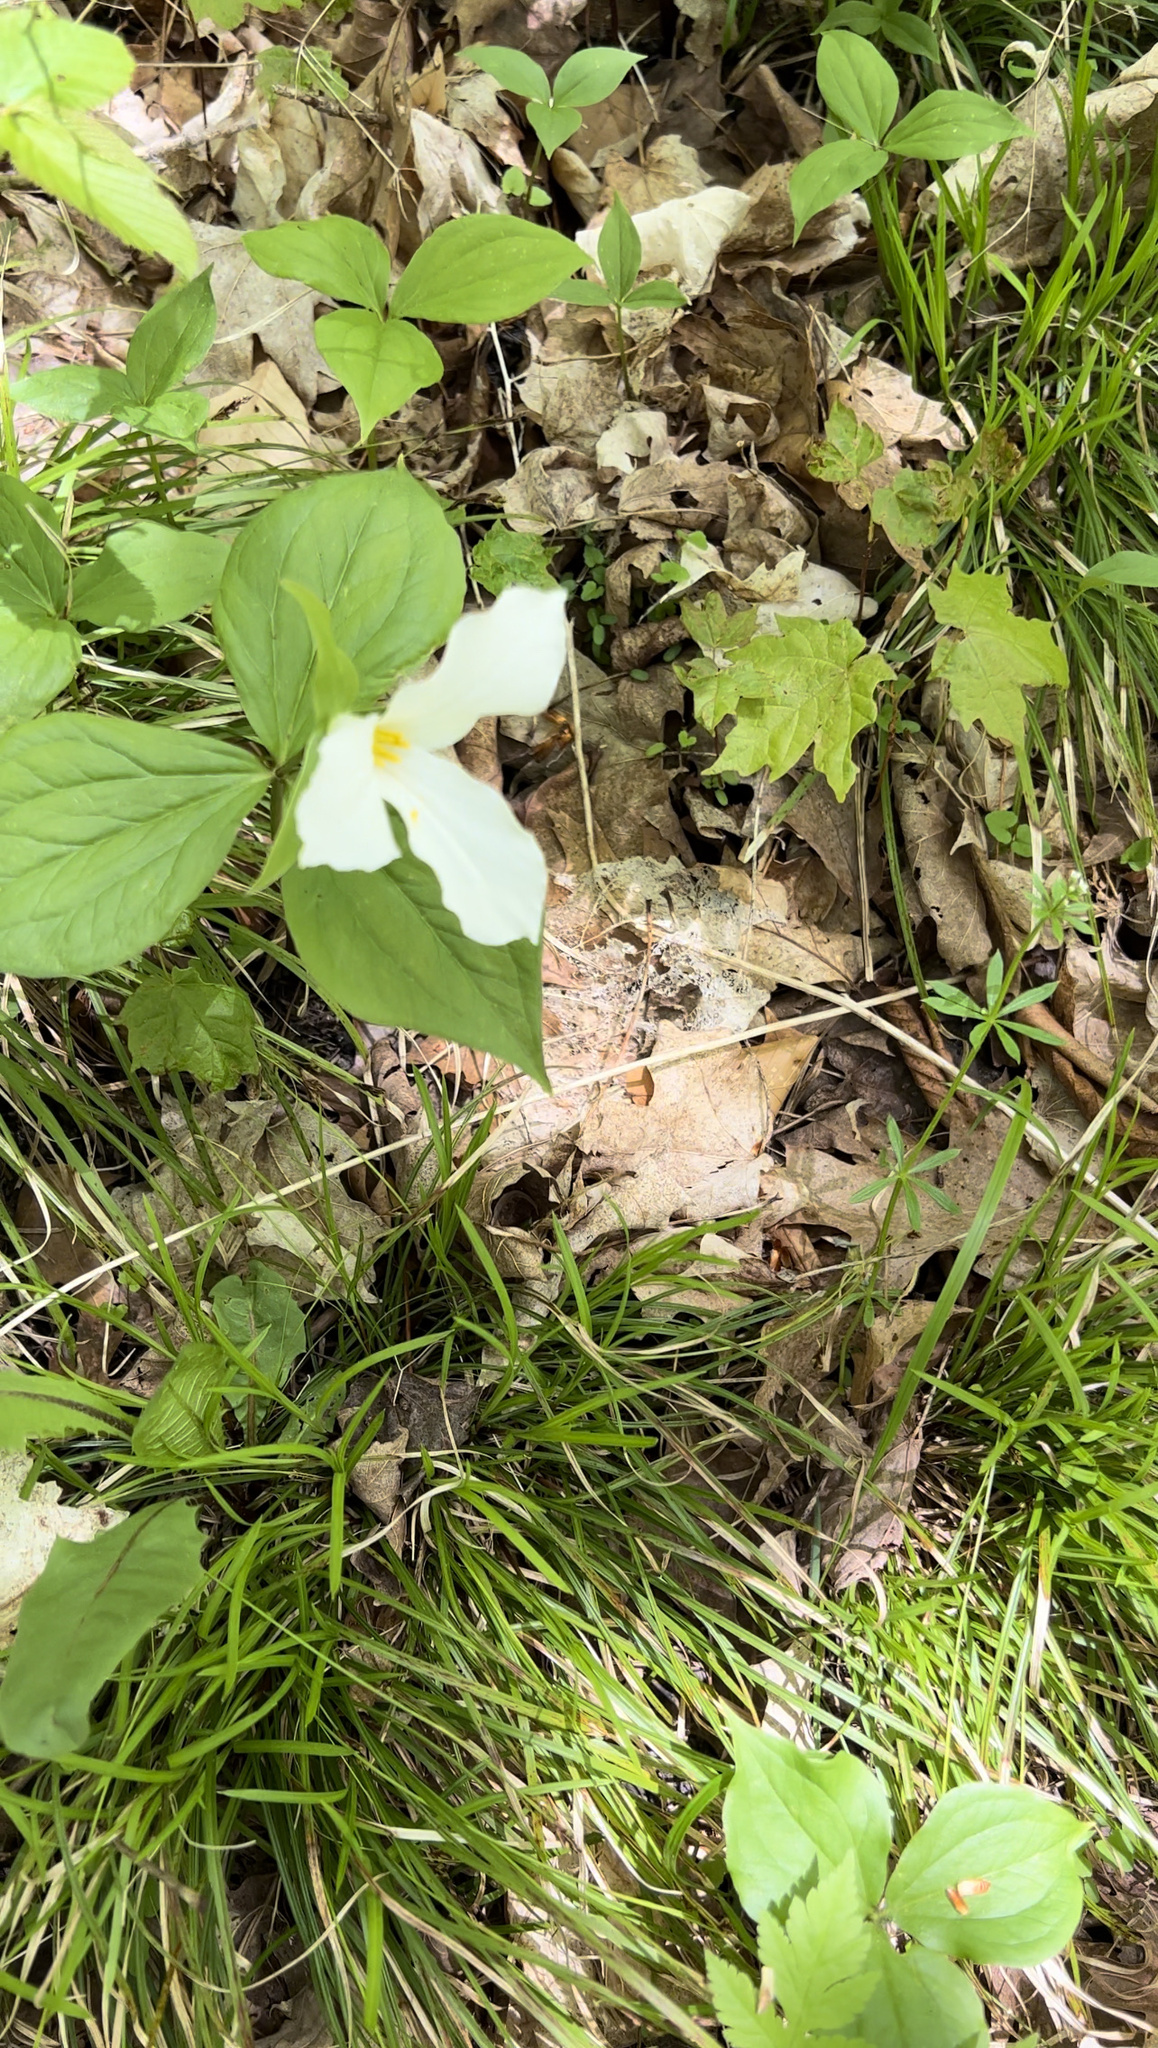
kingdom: Plantae
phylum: Tracheophyta
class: Liliopsida
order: Liliales
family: Melanthiaceae
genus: Trillium
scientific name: Trillium grandiflorum
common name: Great white trillium
